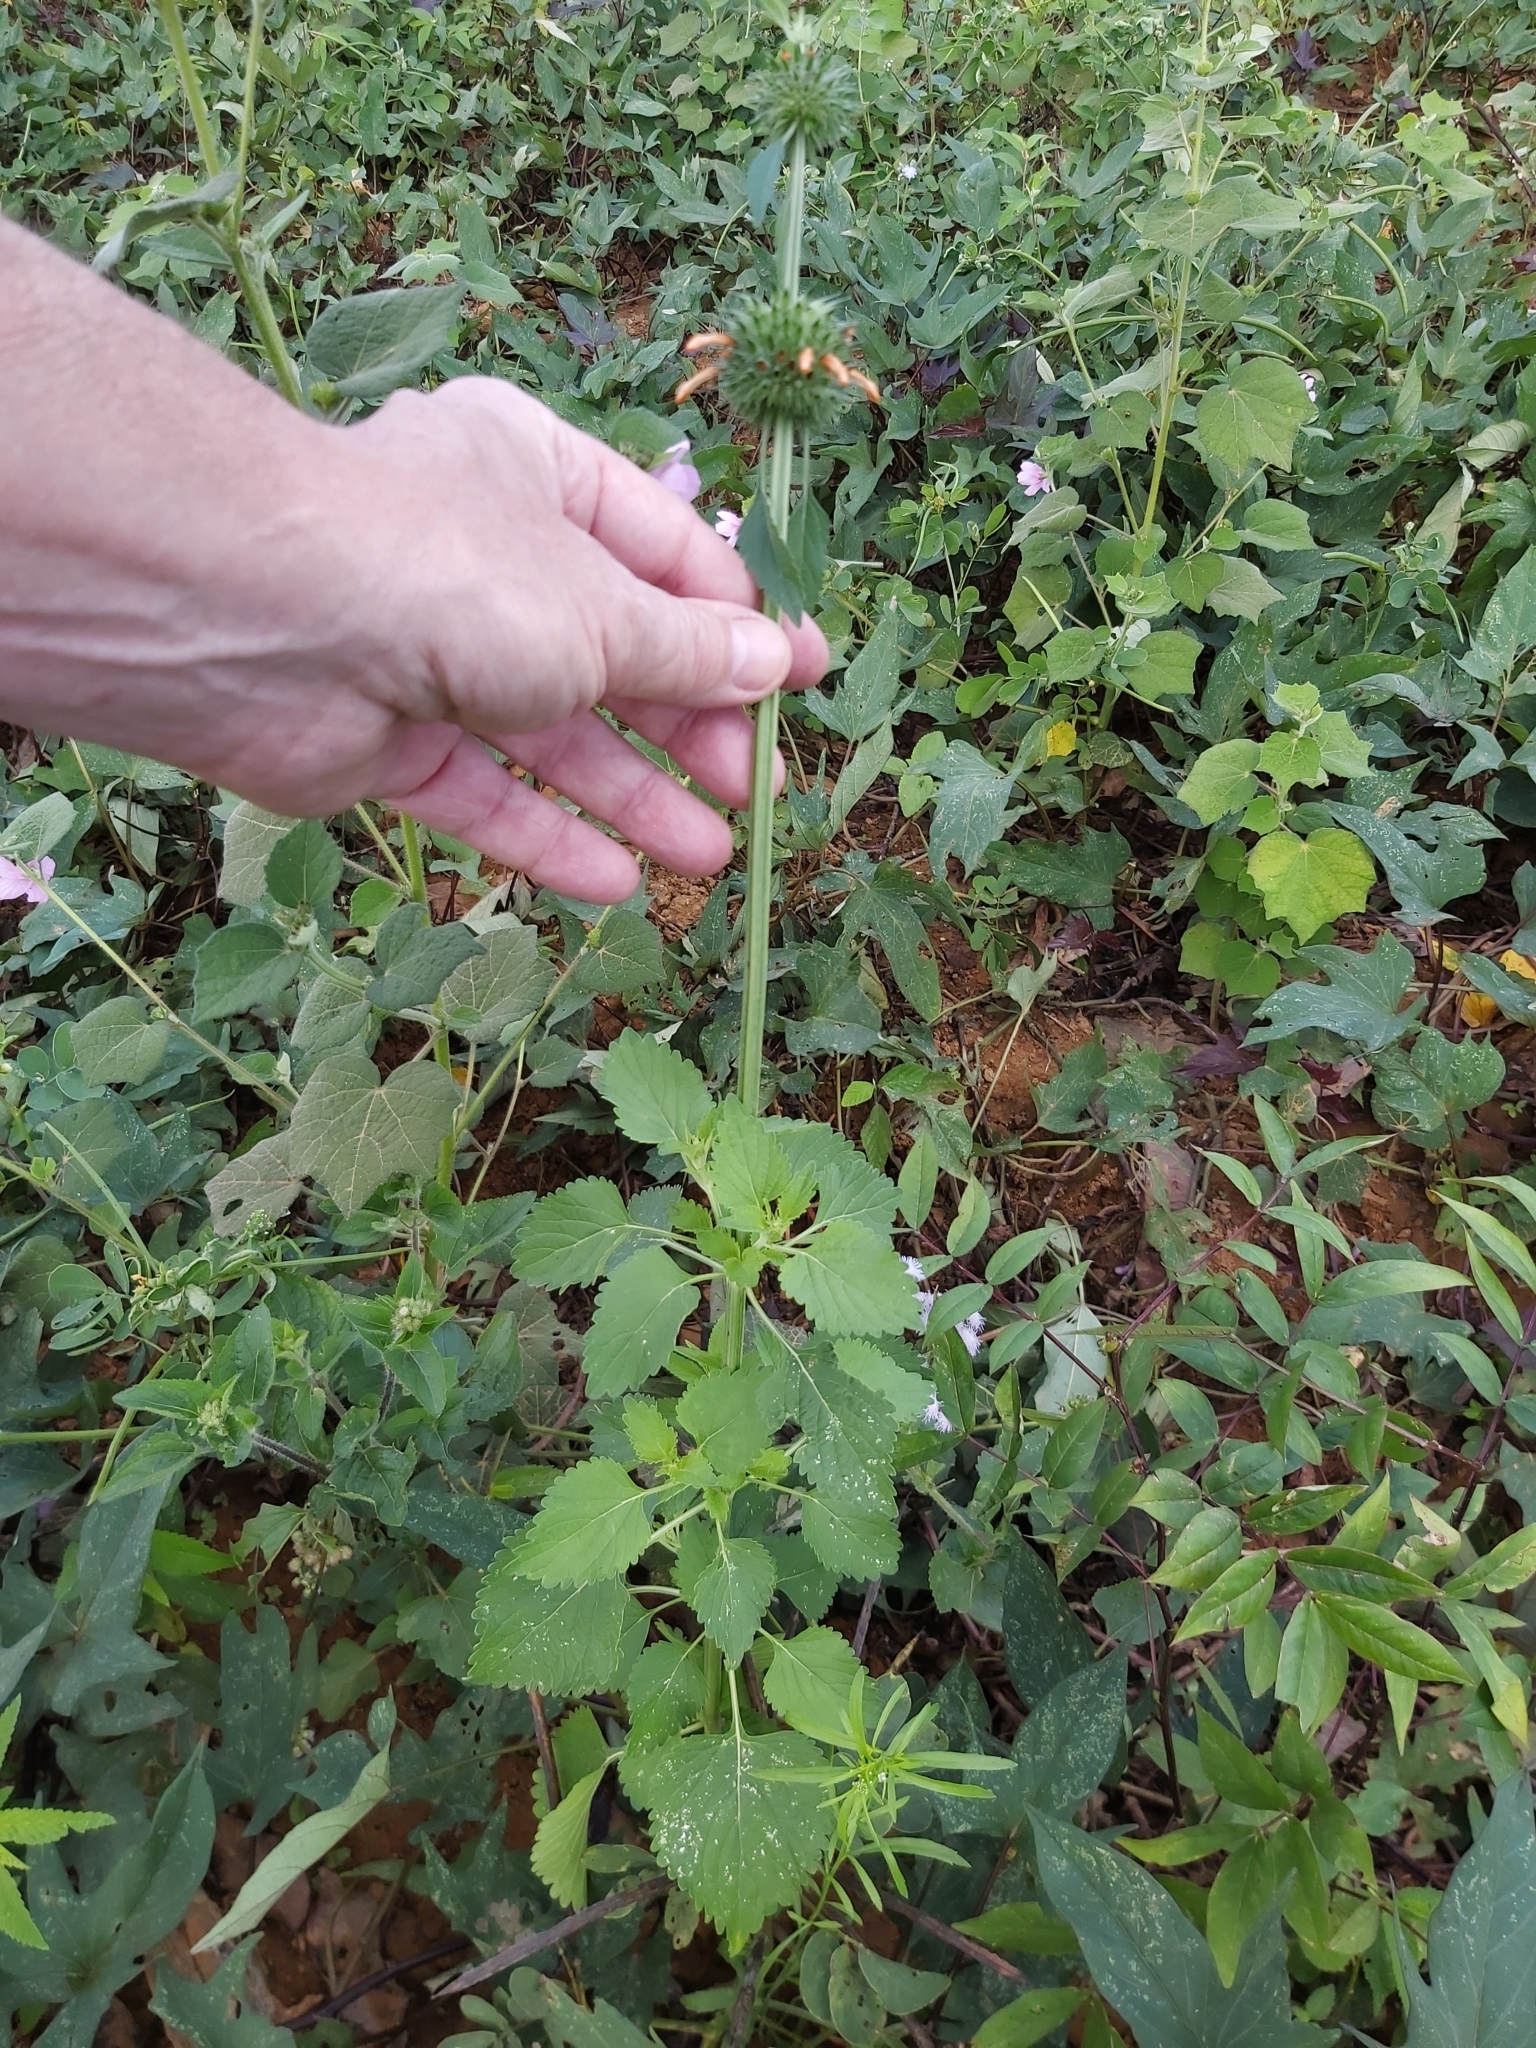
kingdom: Plantae
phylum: Tracheophyta
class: Magnoliopsida
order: Lamiales
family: Lamiaceae
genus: Leonotis
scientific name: Leonotis nepetifolia
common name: Christmas candlestick
